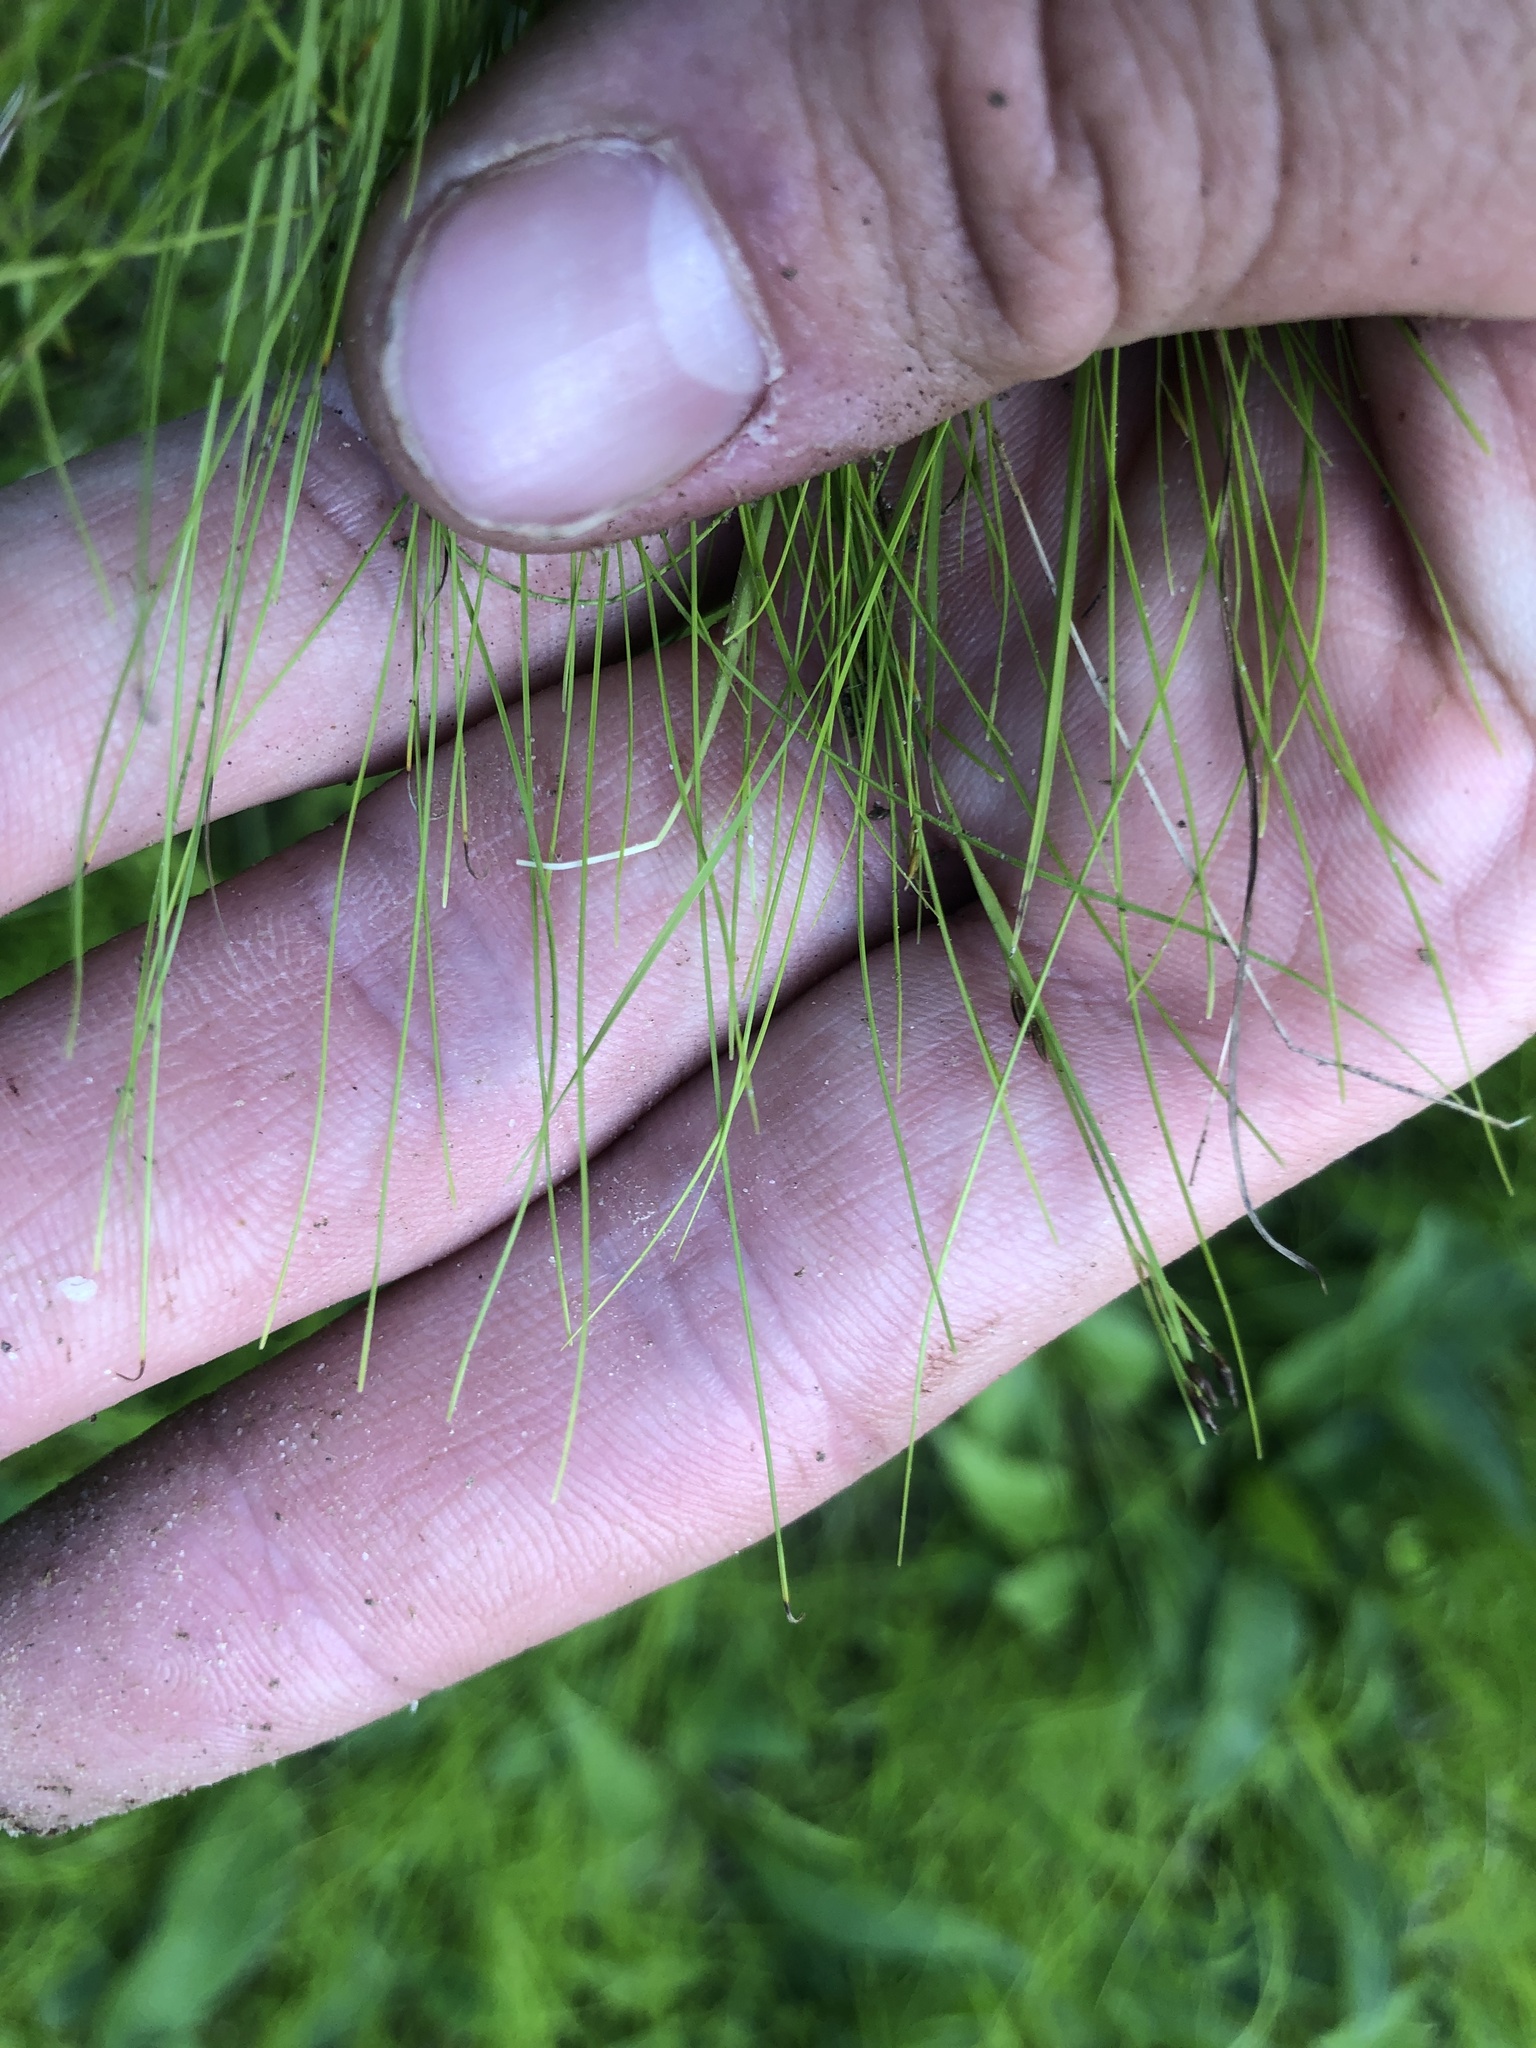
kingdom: Plantae
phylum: Tracheophyta
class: Liliopsida
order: Poales
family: Cyperaceae
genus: Rhynchospora
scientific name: Rhynchospora thornei
